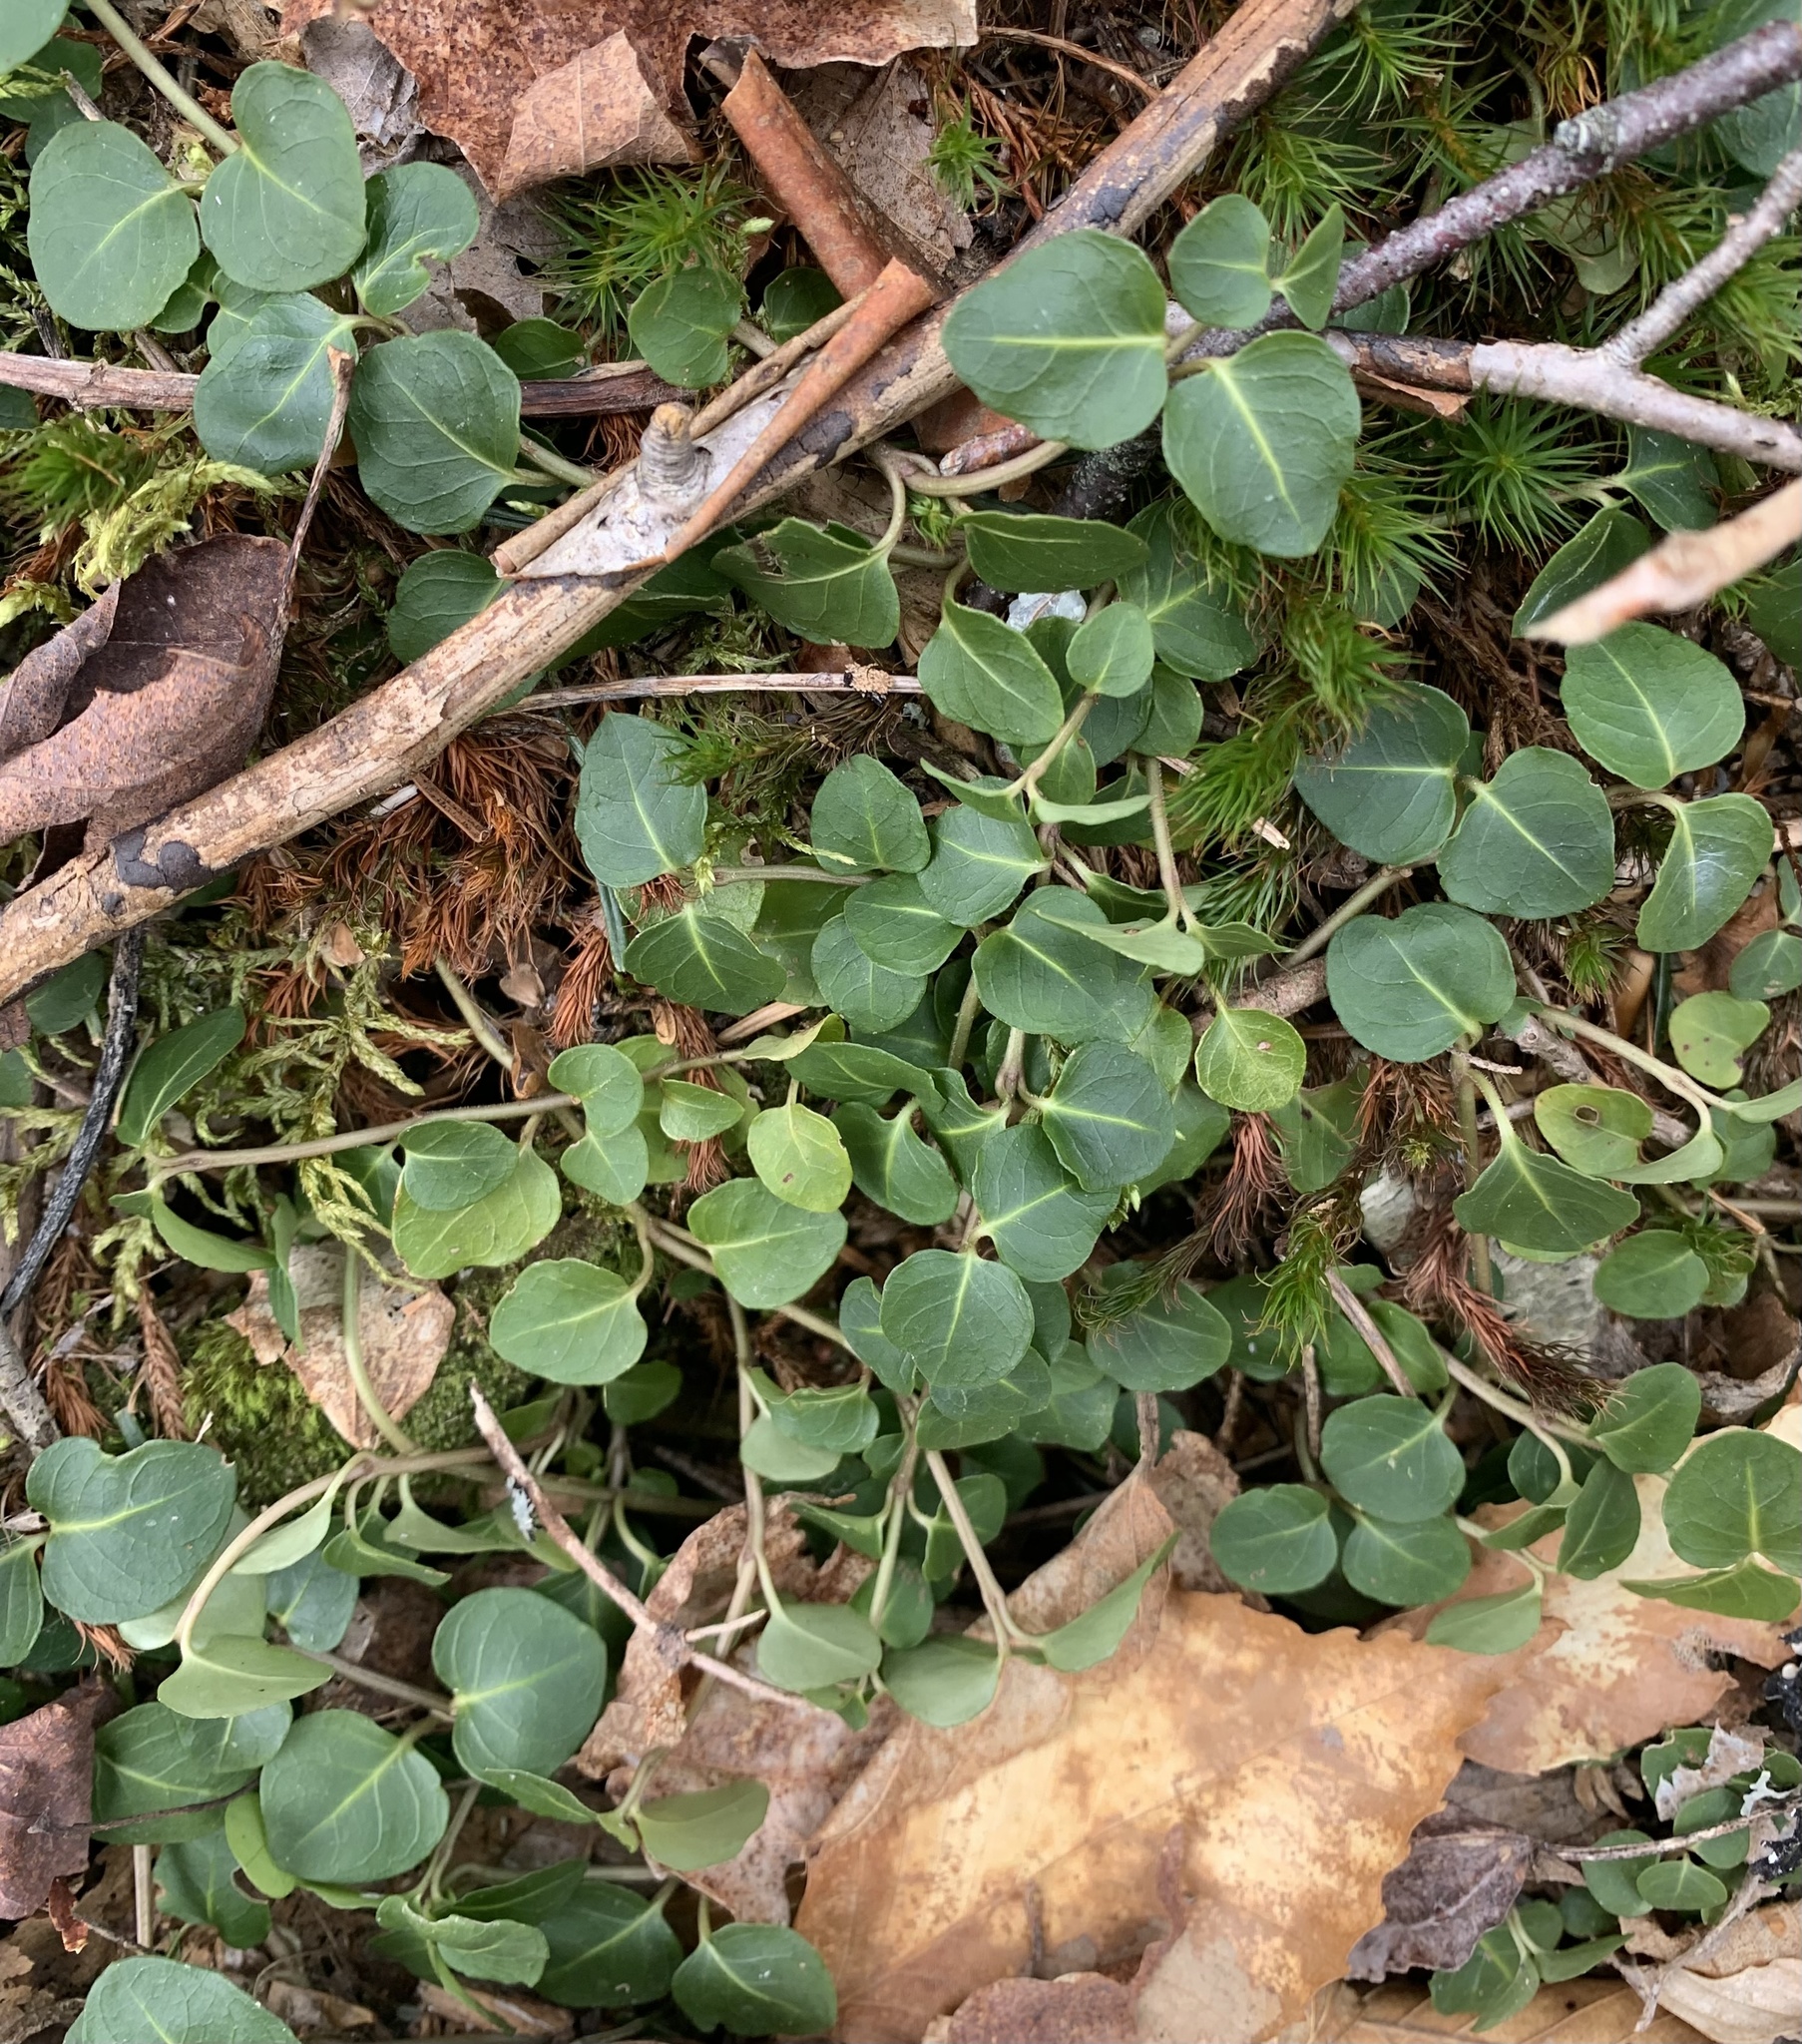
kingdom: Plantae
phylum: Tracheophyta
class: Magnoliopsida
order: Gentianales
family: Rubiaceae
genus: Mitchella
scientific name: Mitchella repens
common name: Partridge-berry
